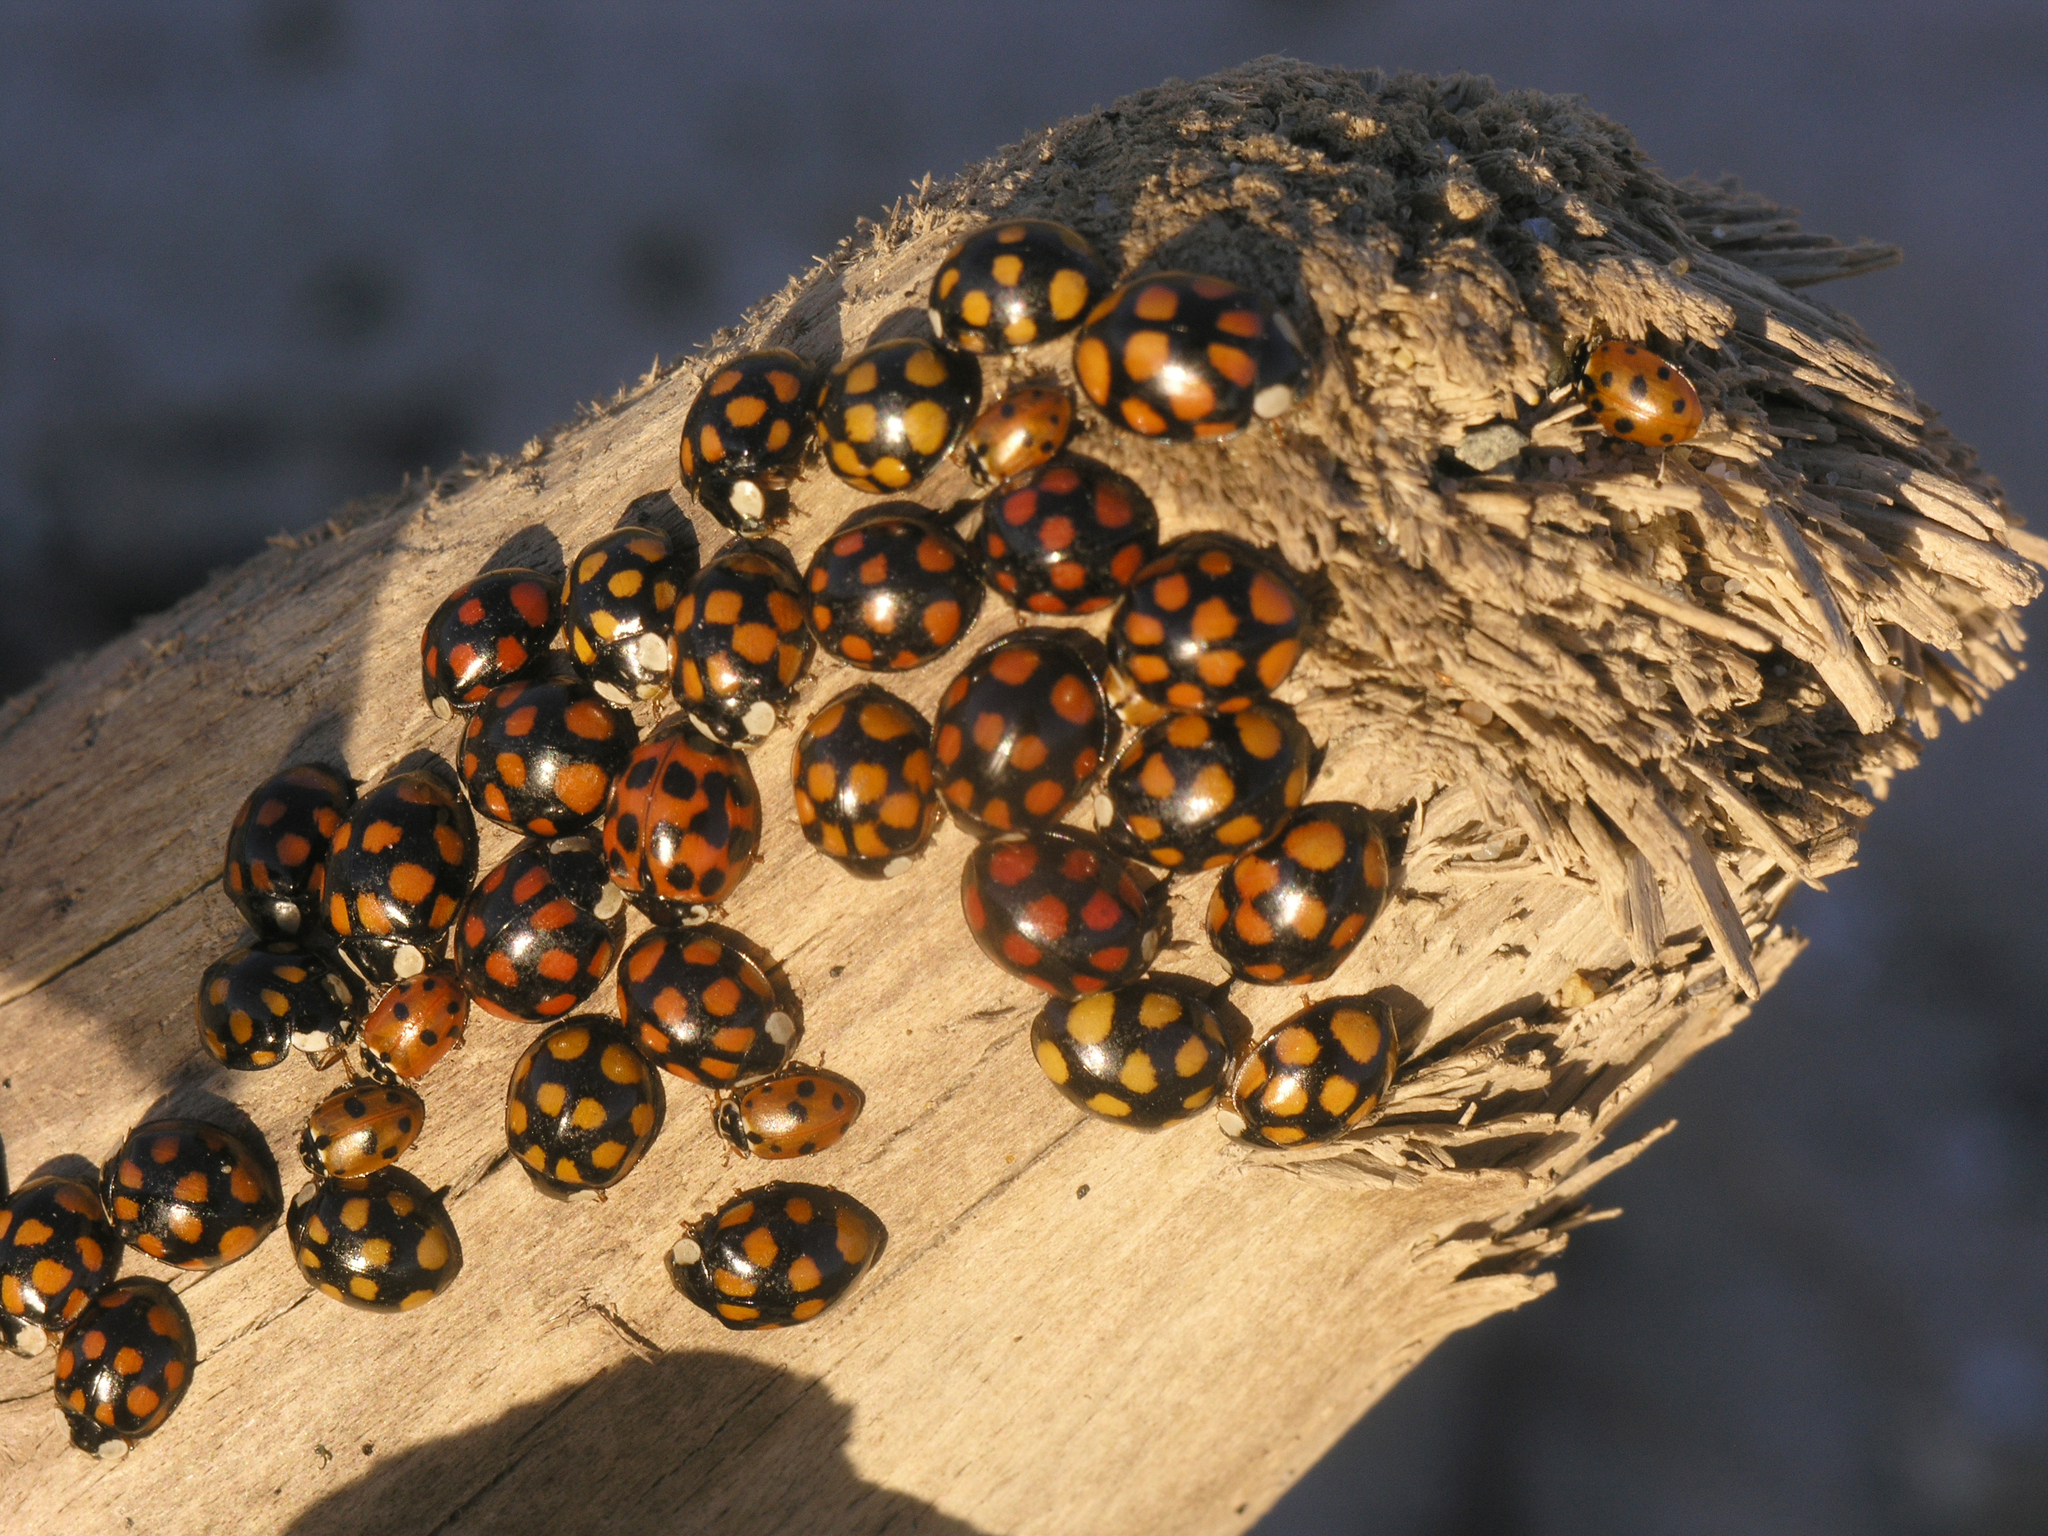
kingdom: Animalia
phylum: Arthropoda
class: Insecta
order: Coleoptera
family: Coccinellidae
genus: Harmonia
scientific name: Harmonia axyridis
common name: Harlequin ladybird
